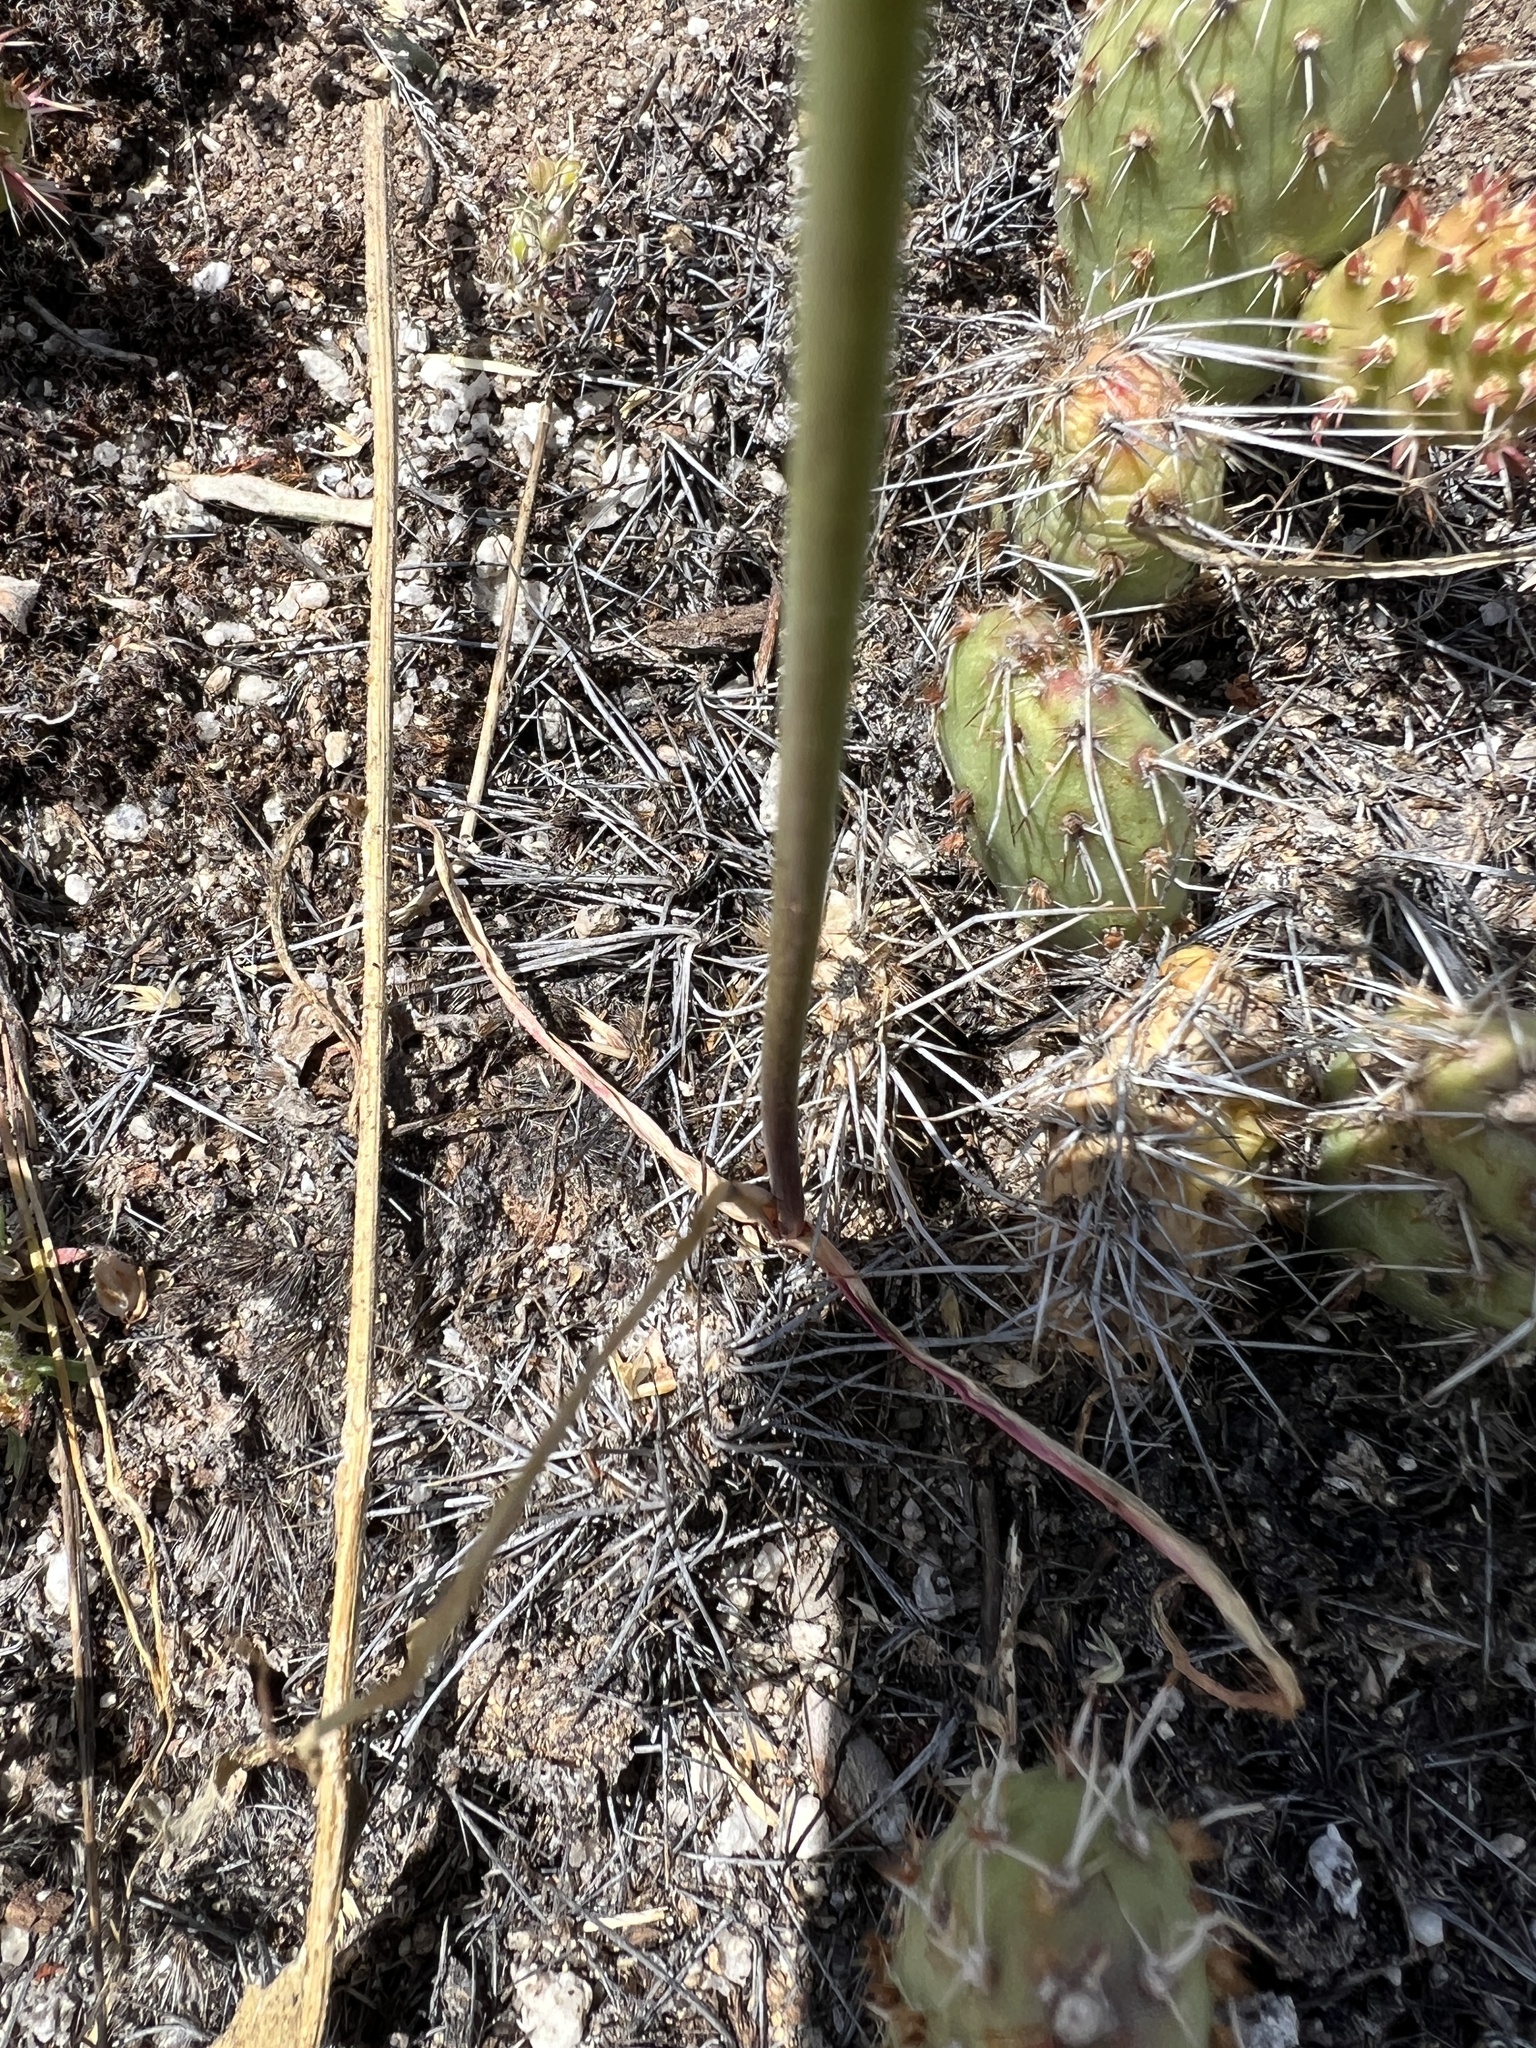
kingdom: Plantae
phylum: Tracheophyta
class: Liliopsida
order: Asparagales
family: Amaryllidaceae
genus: Allium
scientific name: Allium acuminatum
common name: Hooker's onion
